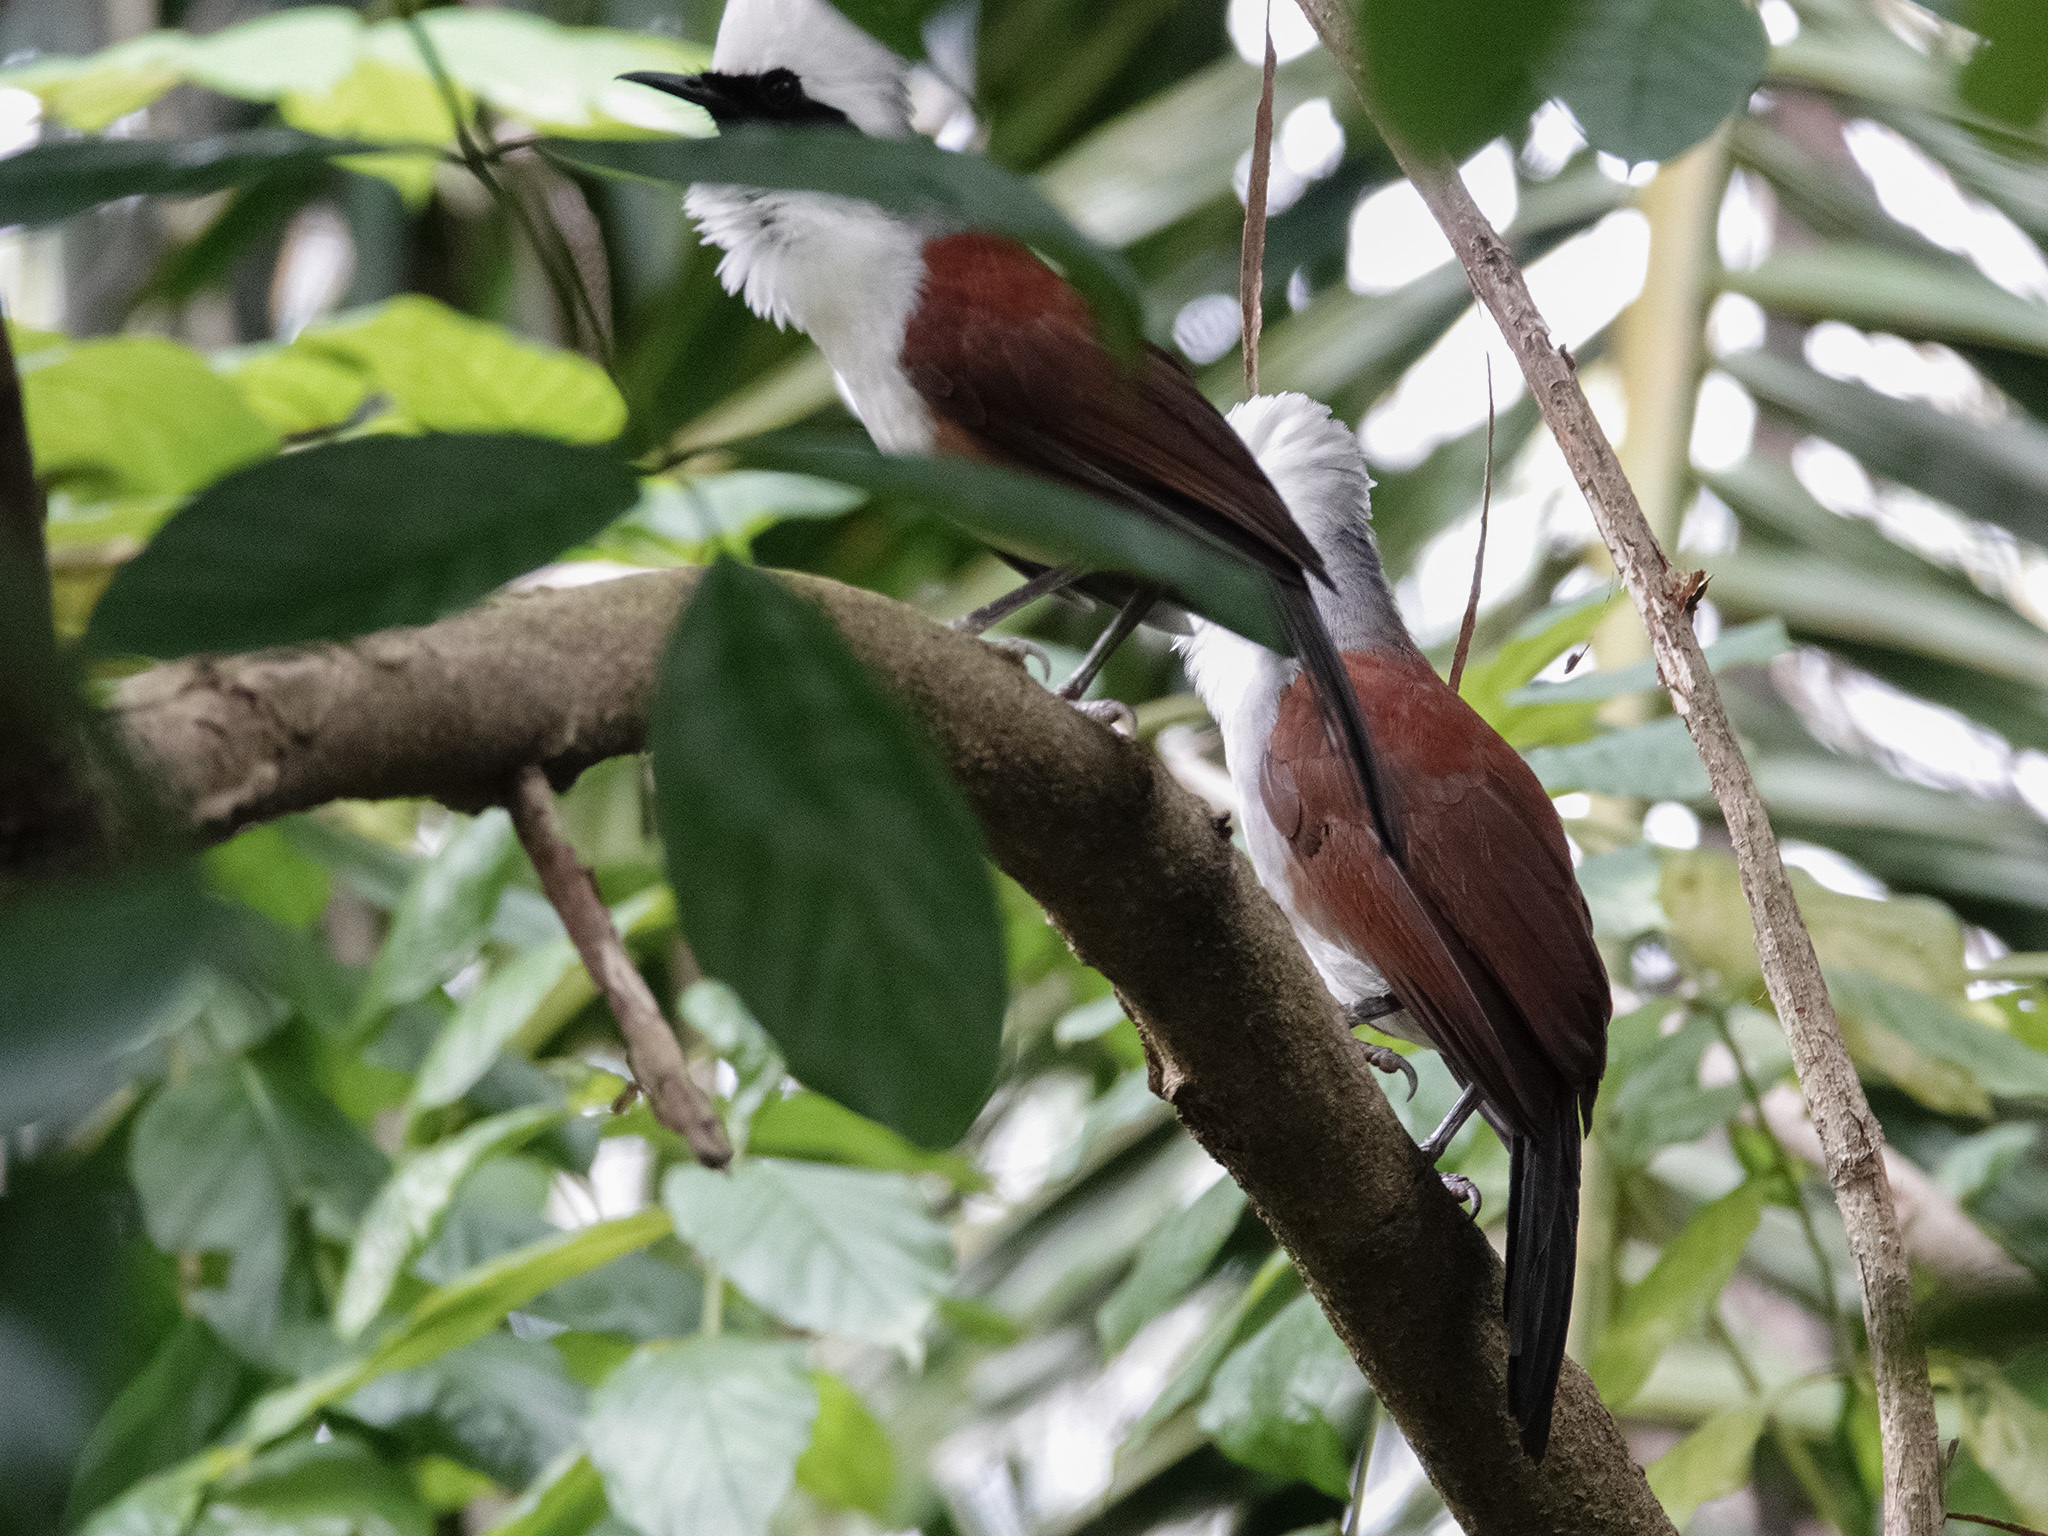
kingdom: Animalia
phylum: Chordata
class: Aves
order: Passeriformes
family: Leiothrichidae
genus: Garrulax
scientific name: Garrulax leucolophus
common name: White-crested laughingthrush
